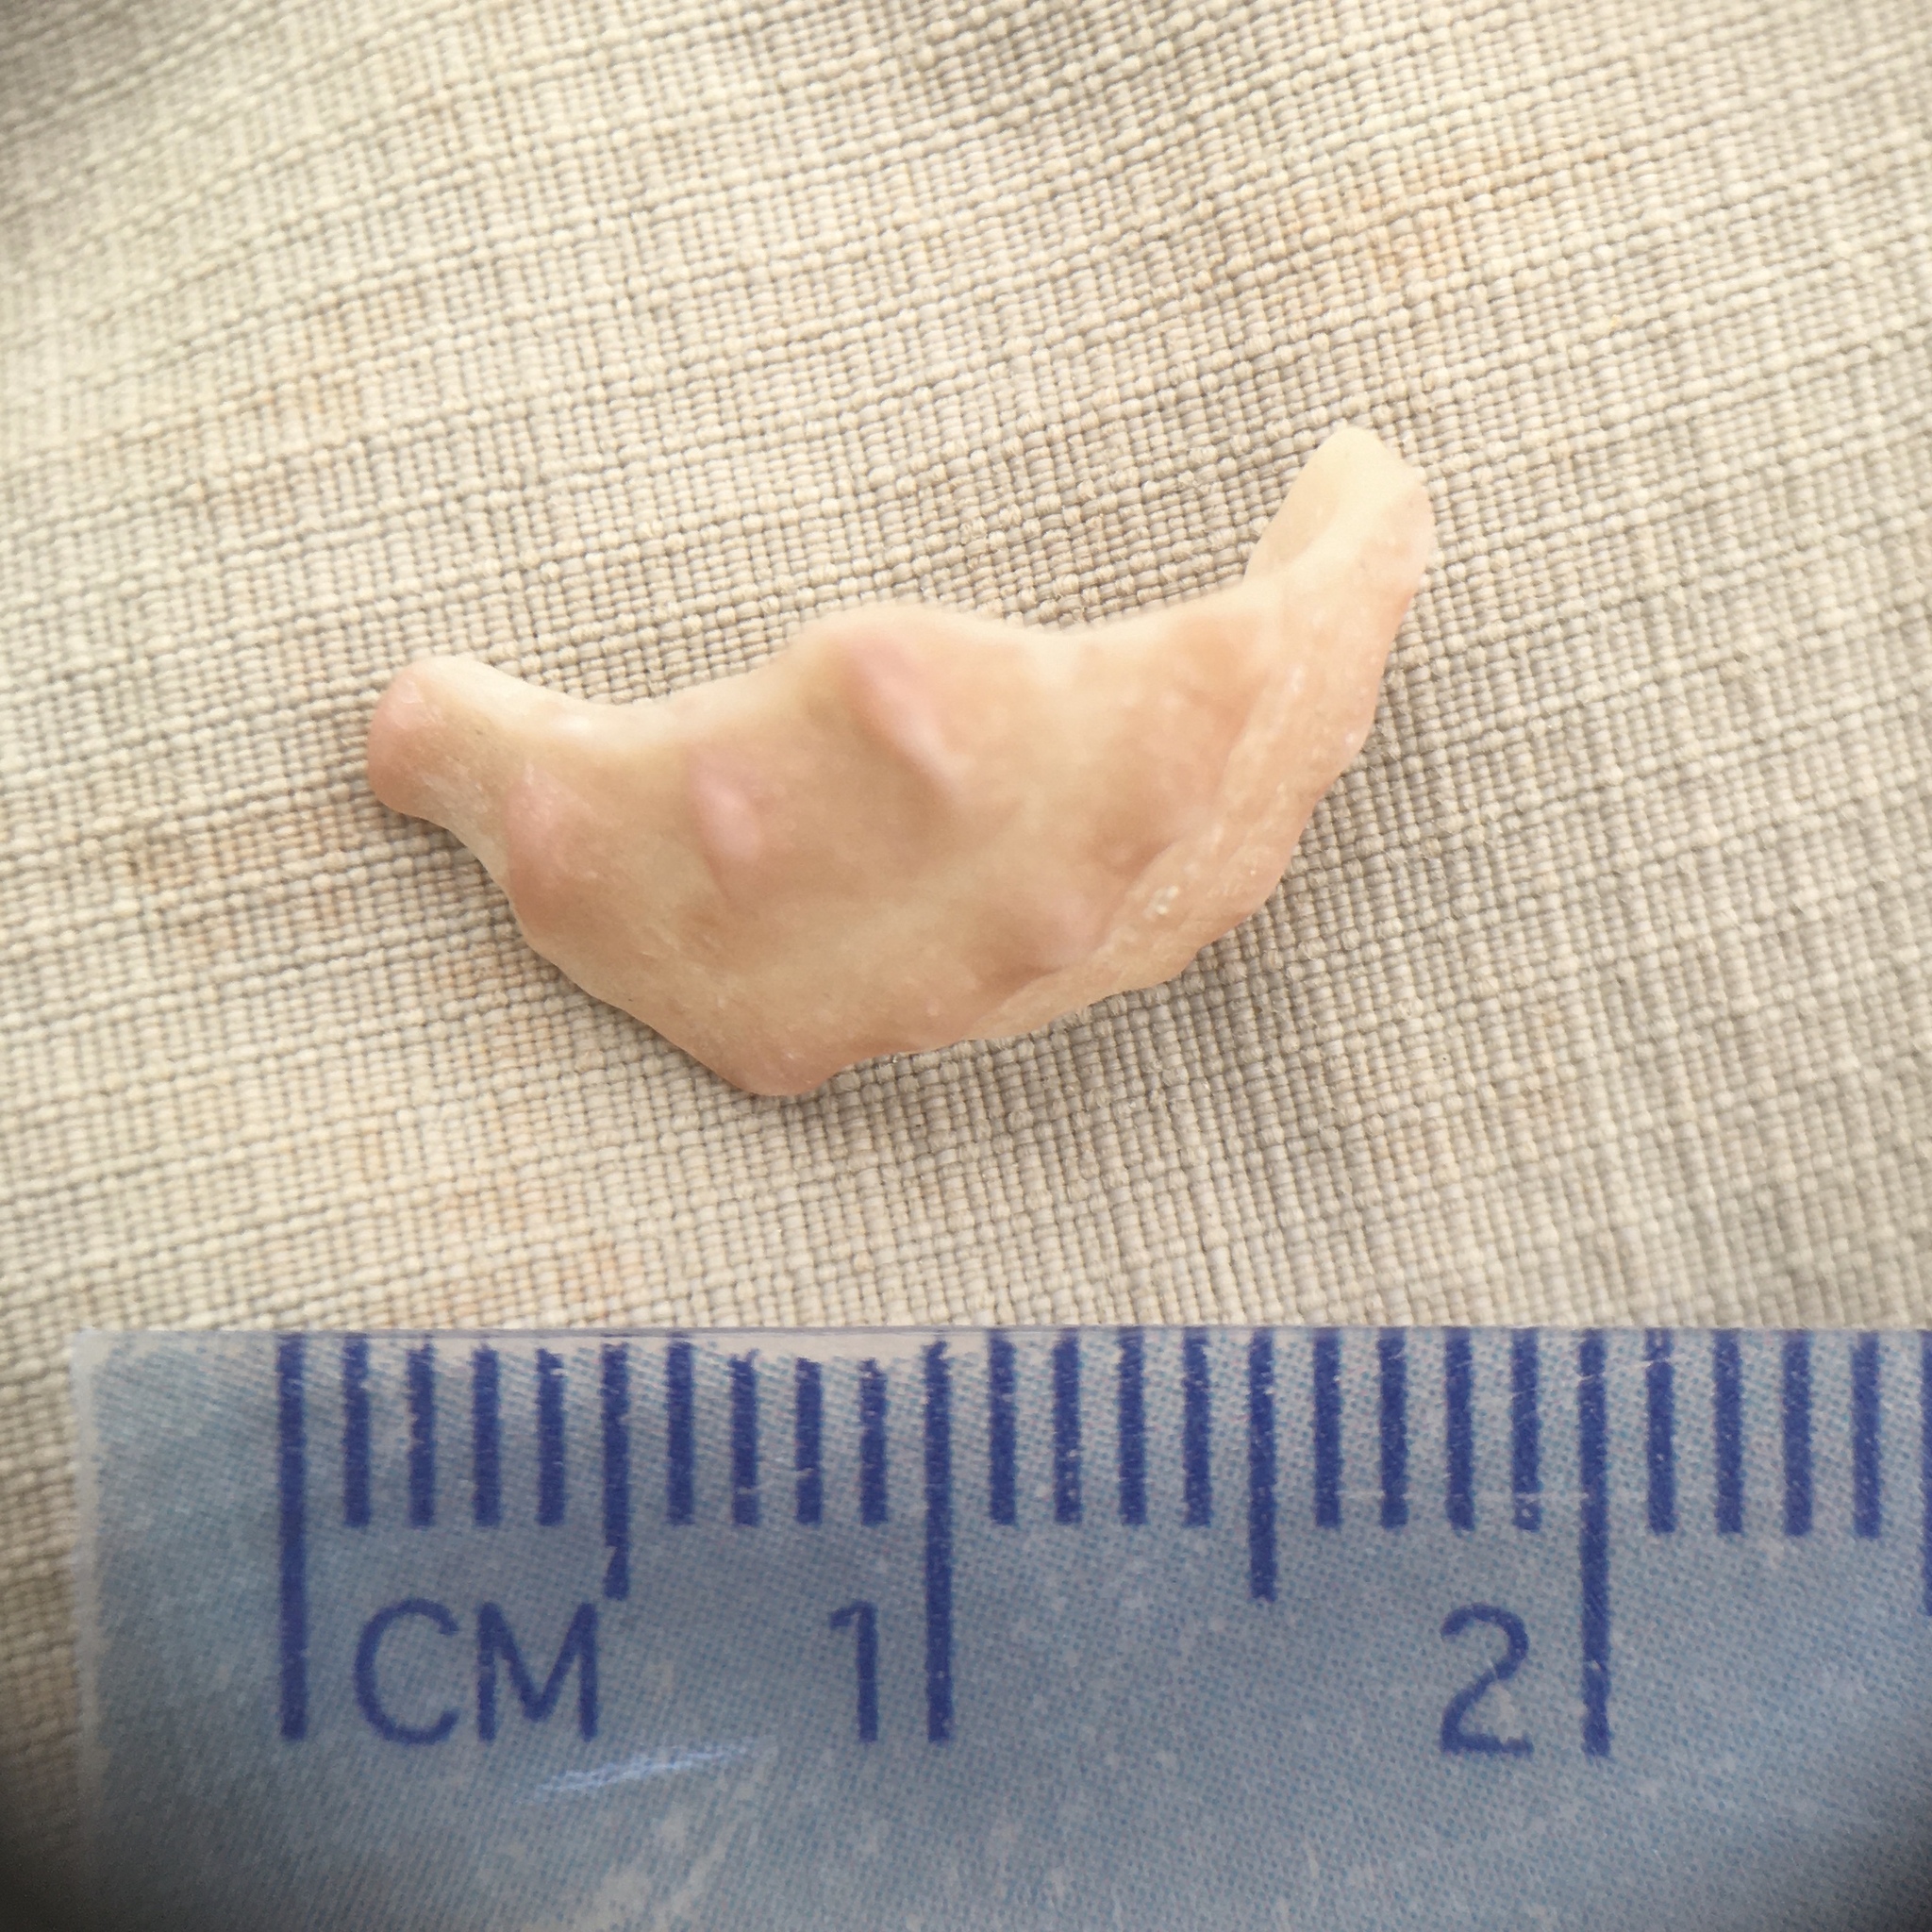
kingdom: Animalia
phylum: Mollusca
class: Gastropoda
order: Trochida
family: Turbinidae
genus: Bolma
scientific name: Bolma rugosa
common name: Rough star shell
